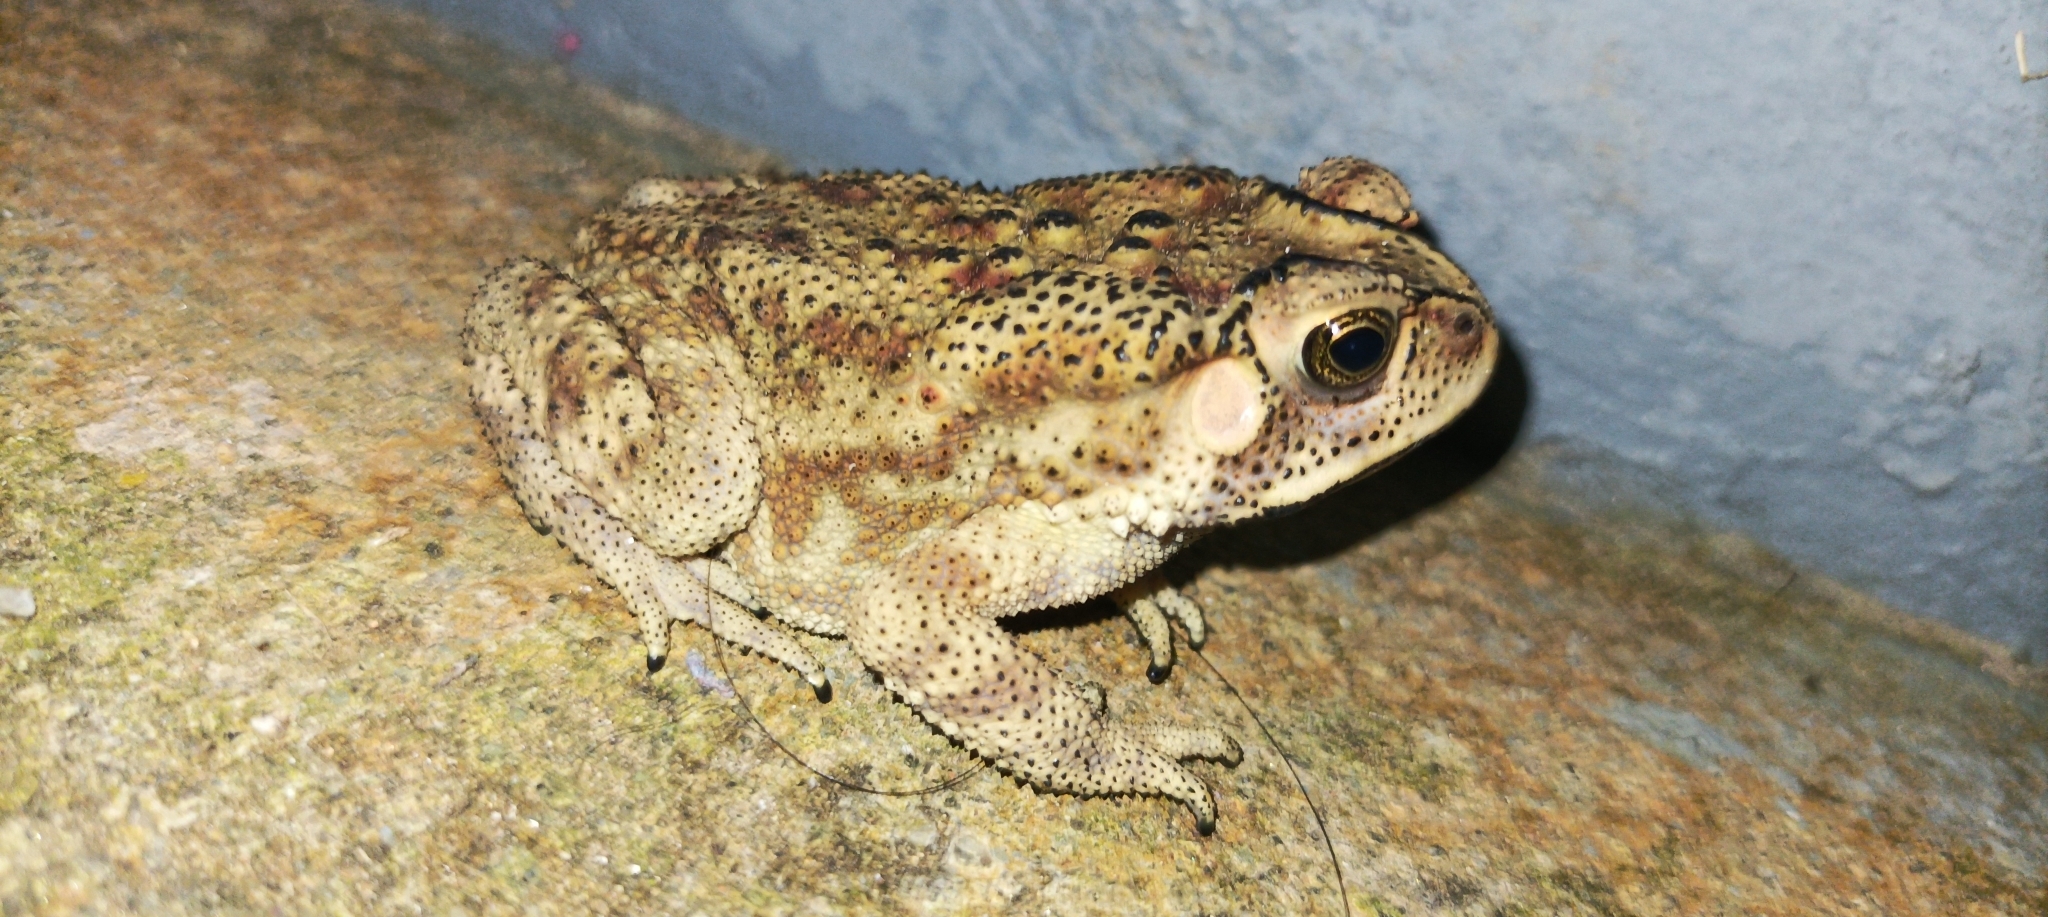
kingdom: Animalia
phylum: Chordata
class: Amphibia
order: Anura
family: Bufonidae
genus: Duttaphrynus
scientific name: Duttaphrynus melanostictus
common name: Common sunda toad
